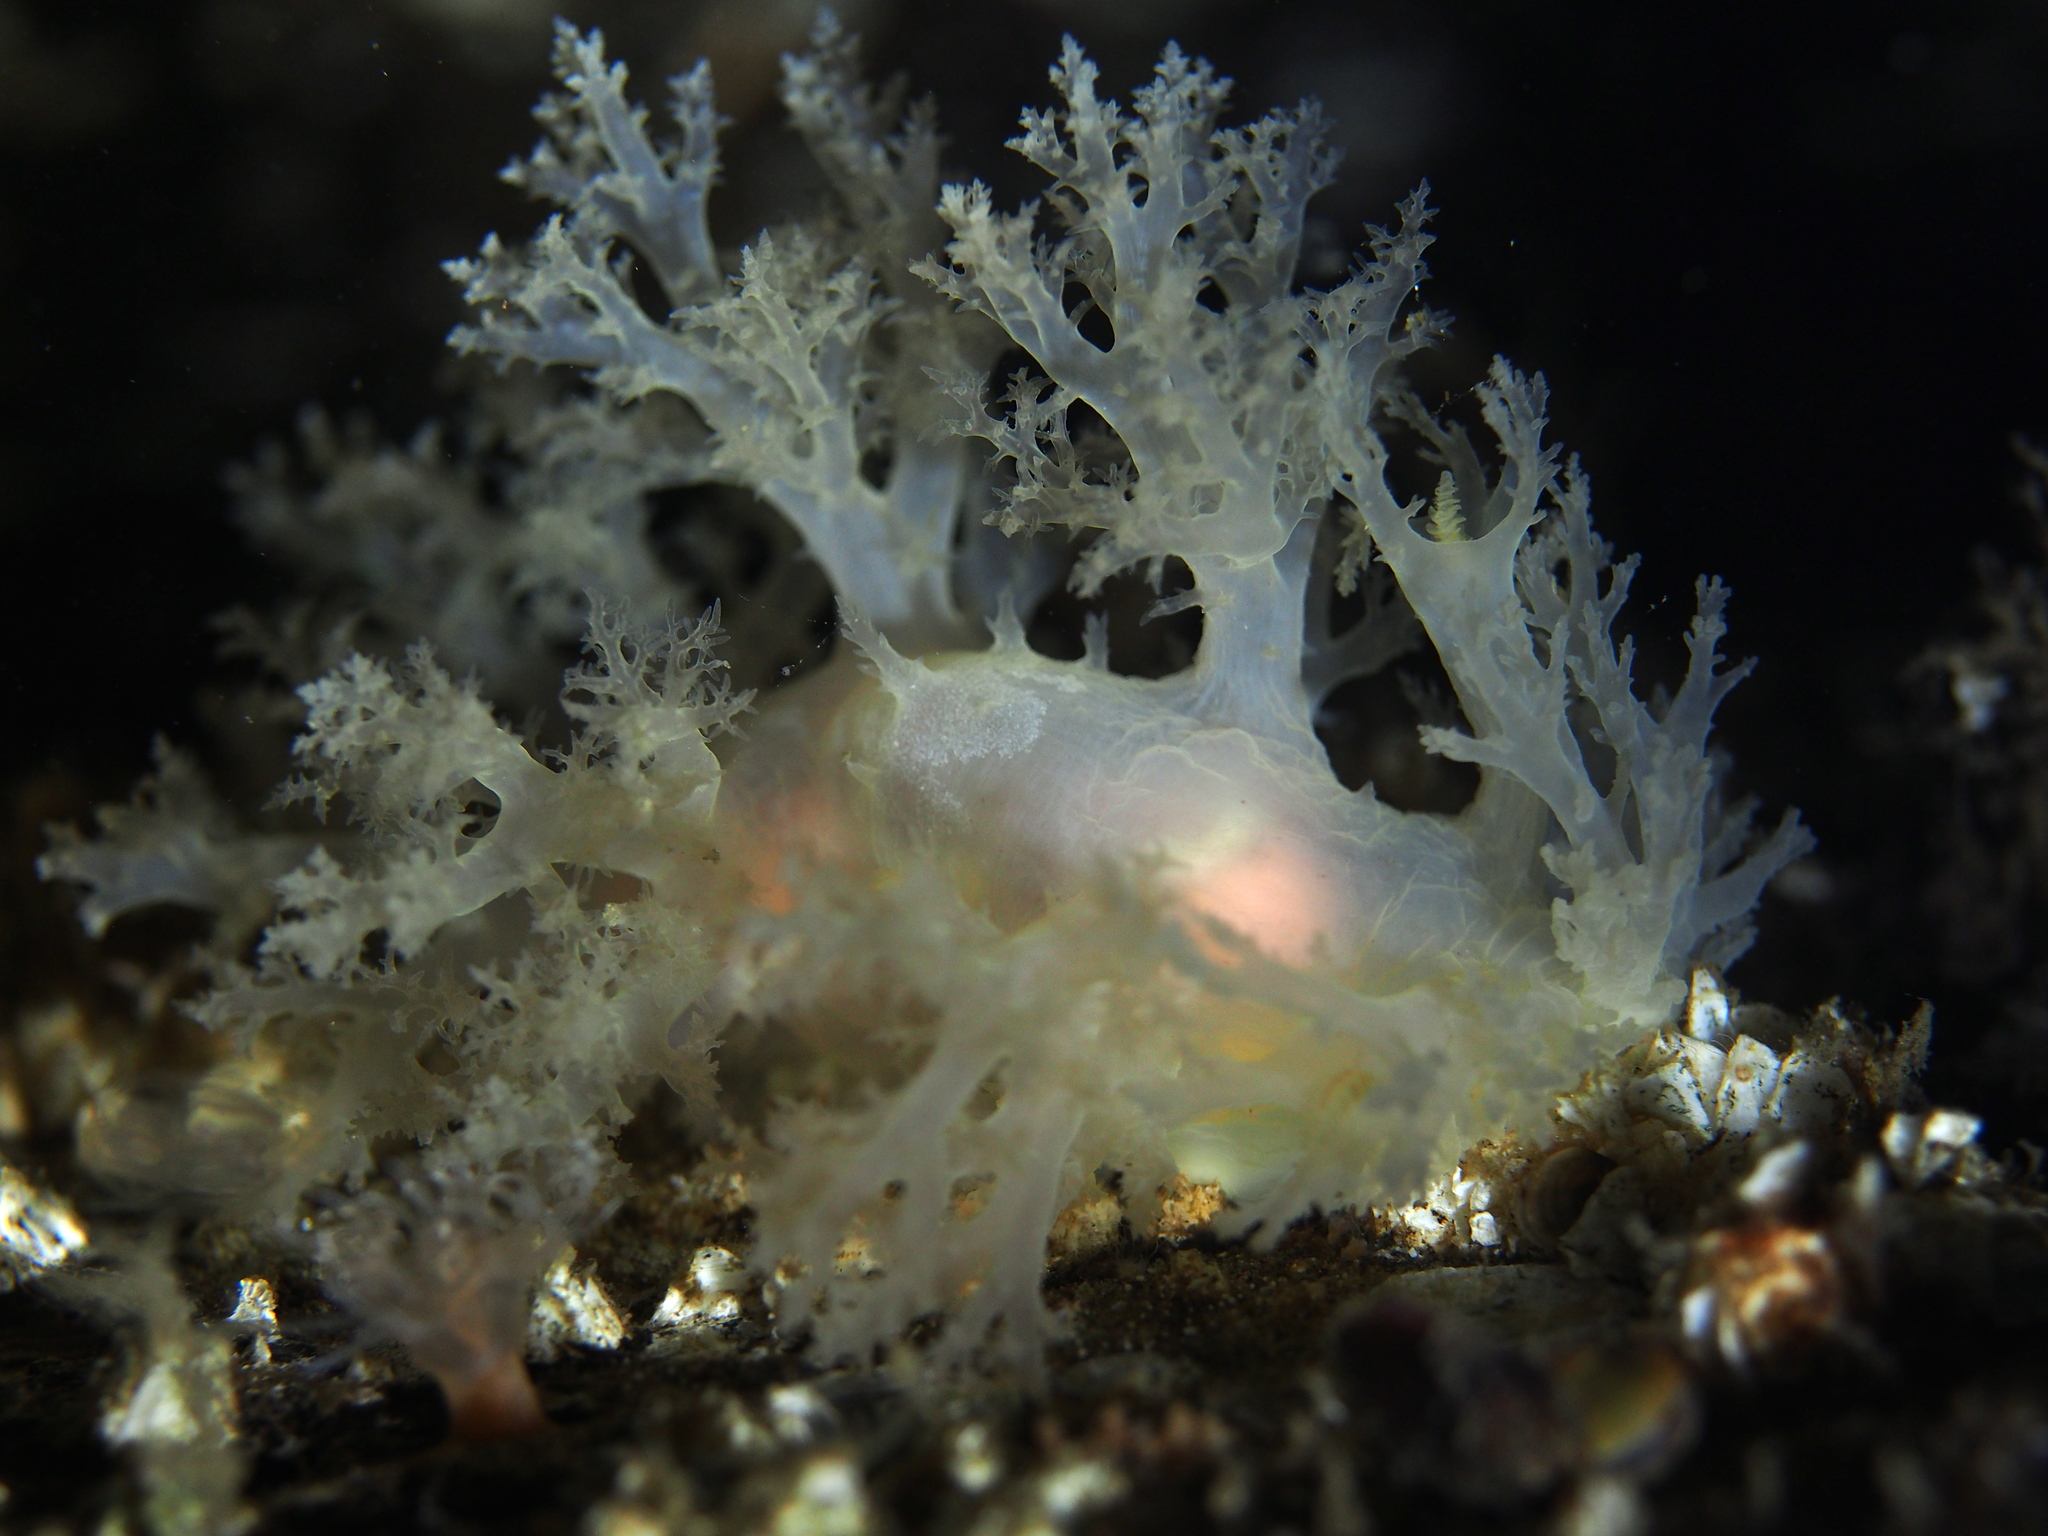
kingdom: Animalia
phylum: Mollusca
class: Gastropoda
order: Nudibranchia
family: Dendronotidae
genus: Dendronotus
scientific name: Dendronotus lacteus
